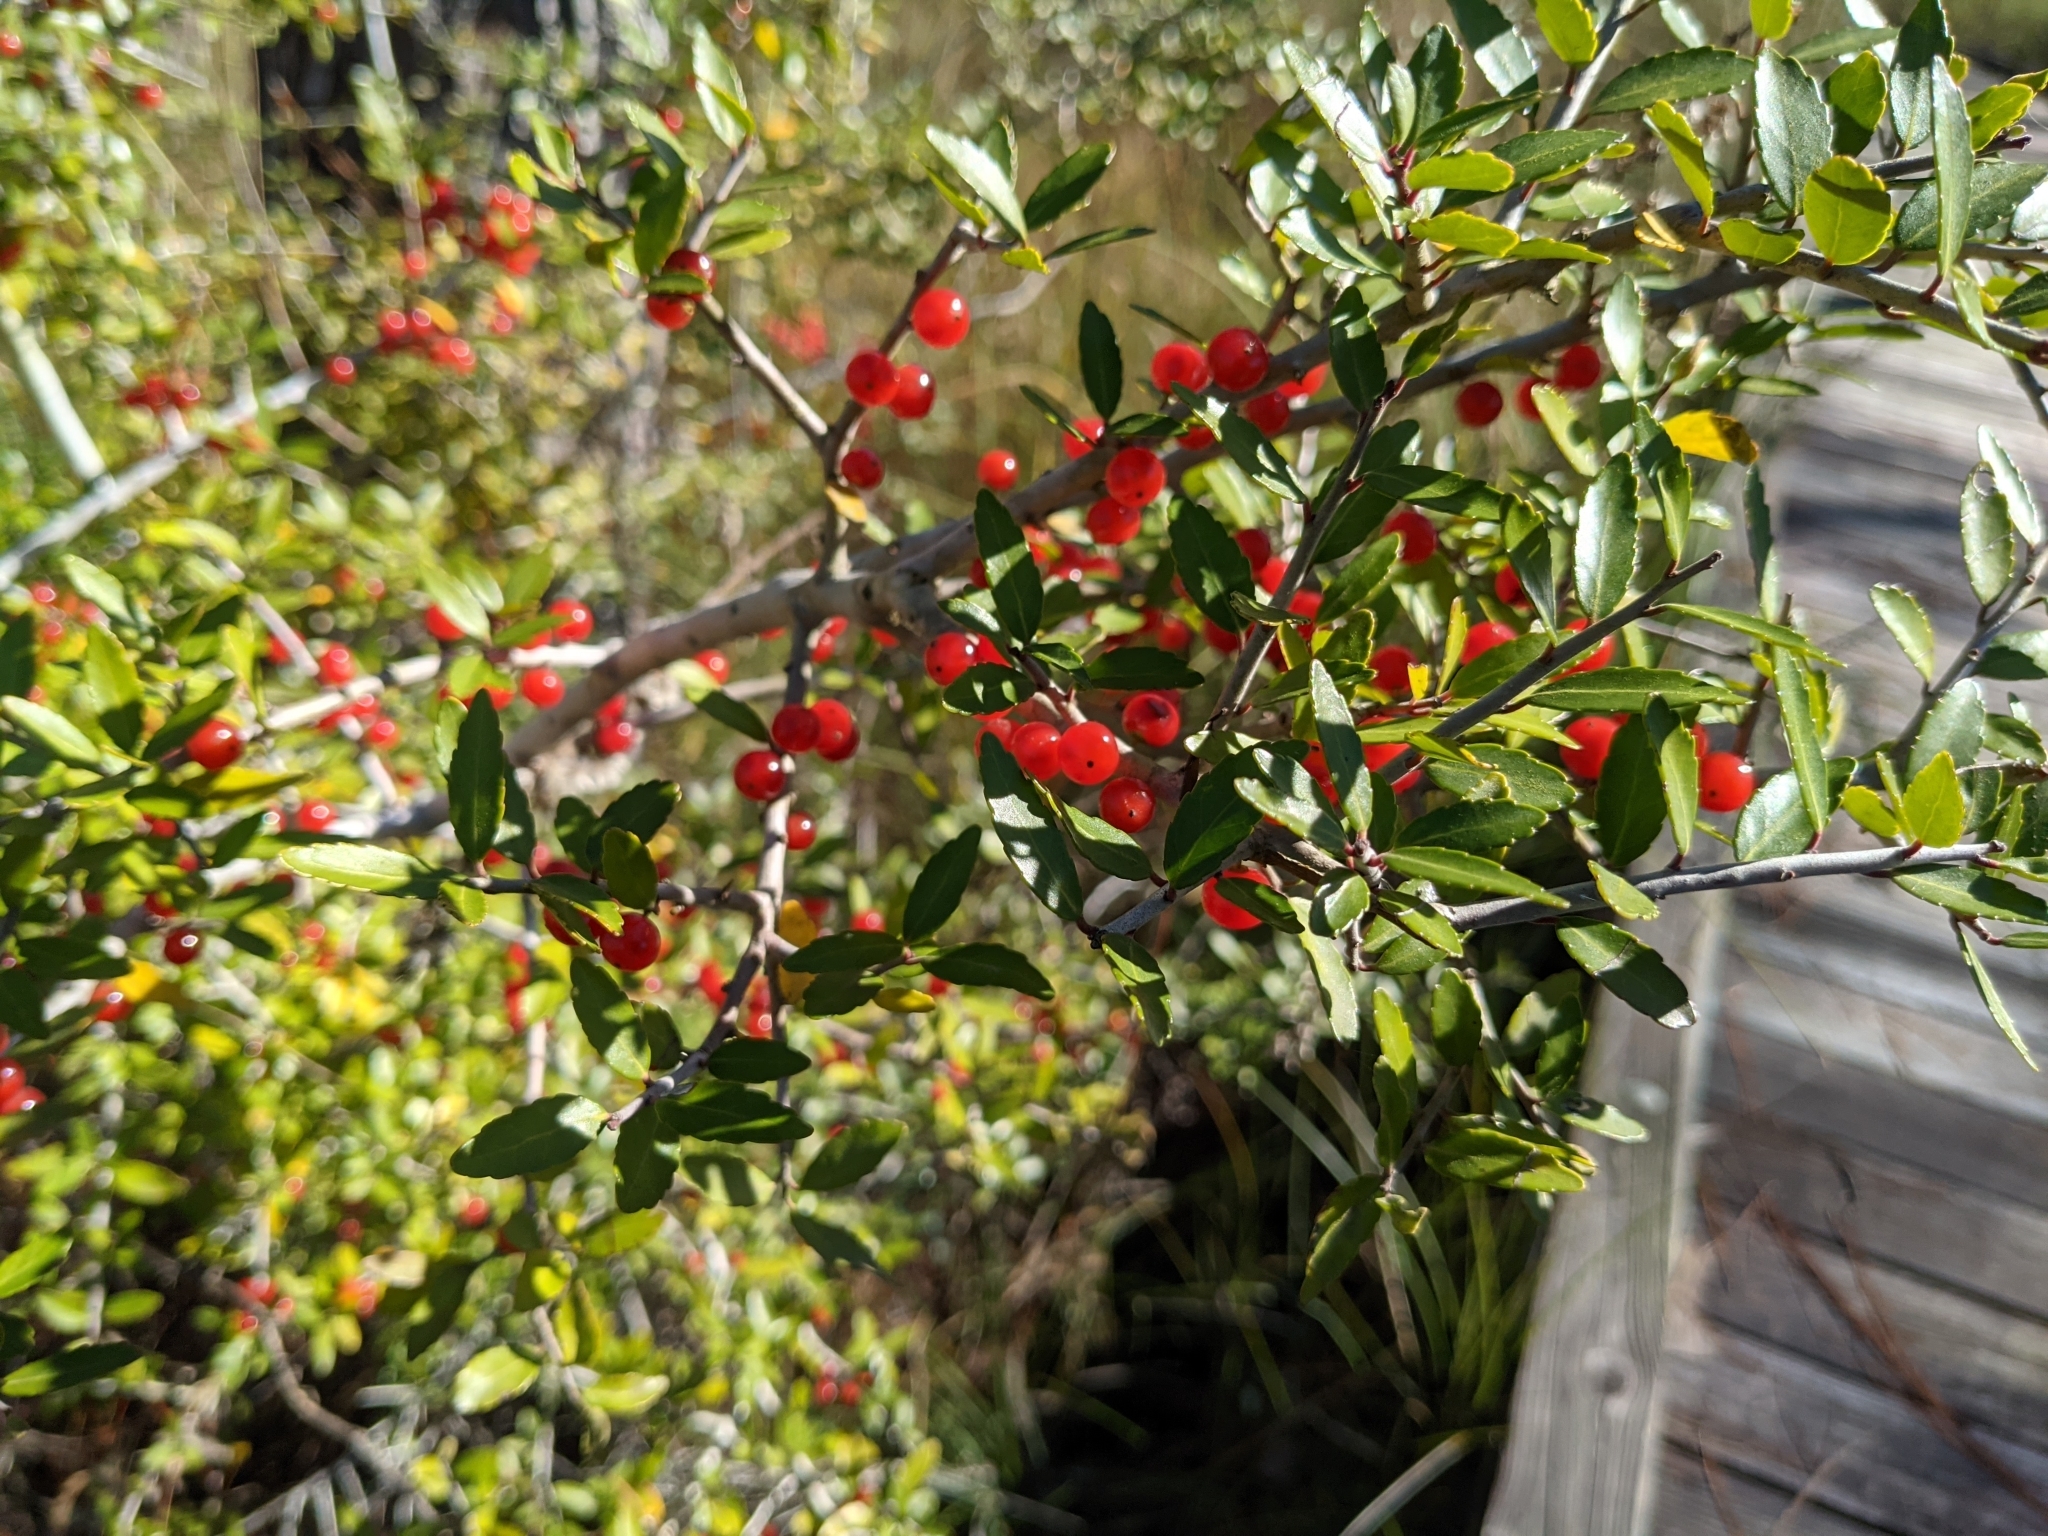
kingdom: Plantae
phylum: Tracheophyta
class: Magnoliopsida
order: Aquifoliales
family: Aquifoliaceae
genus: Ilex
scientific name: Ilex vomitoria
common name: Yaupon holly
